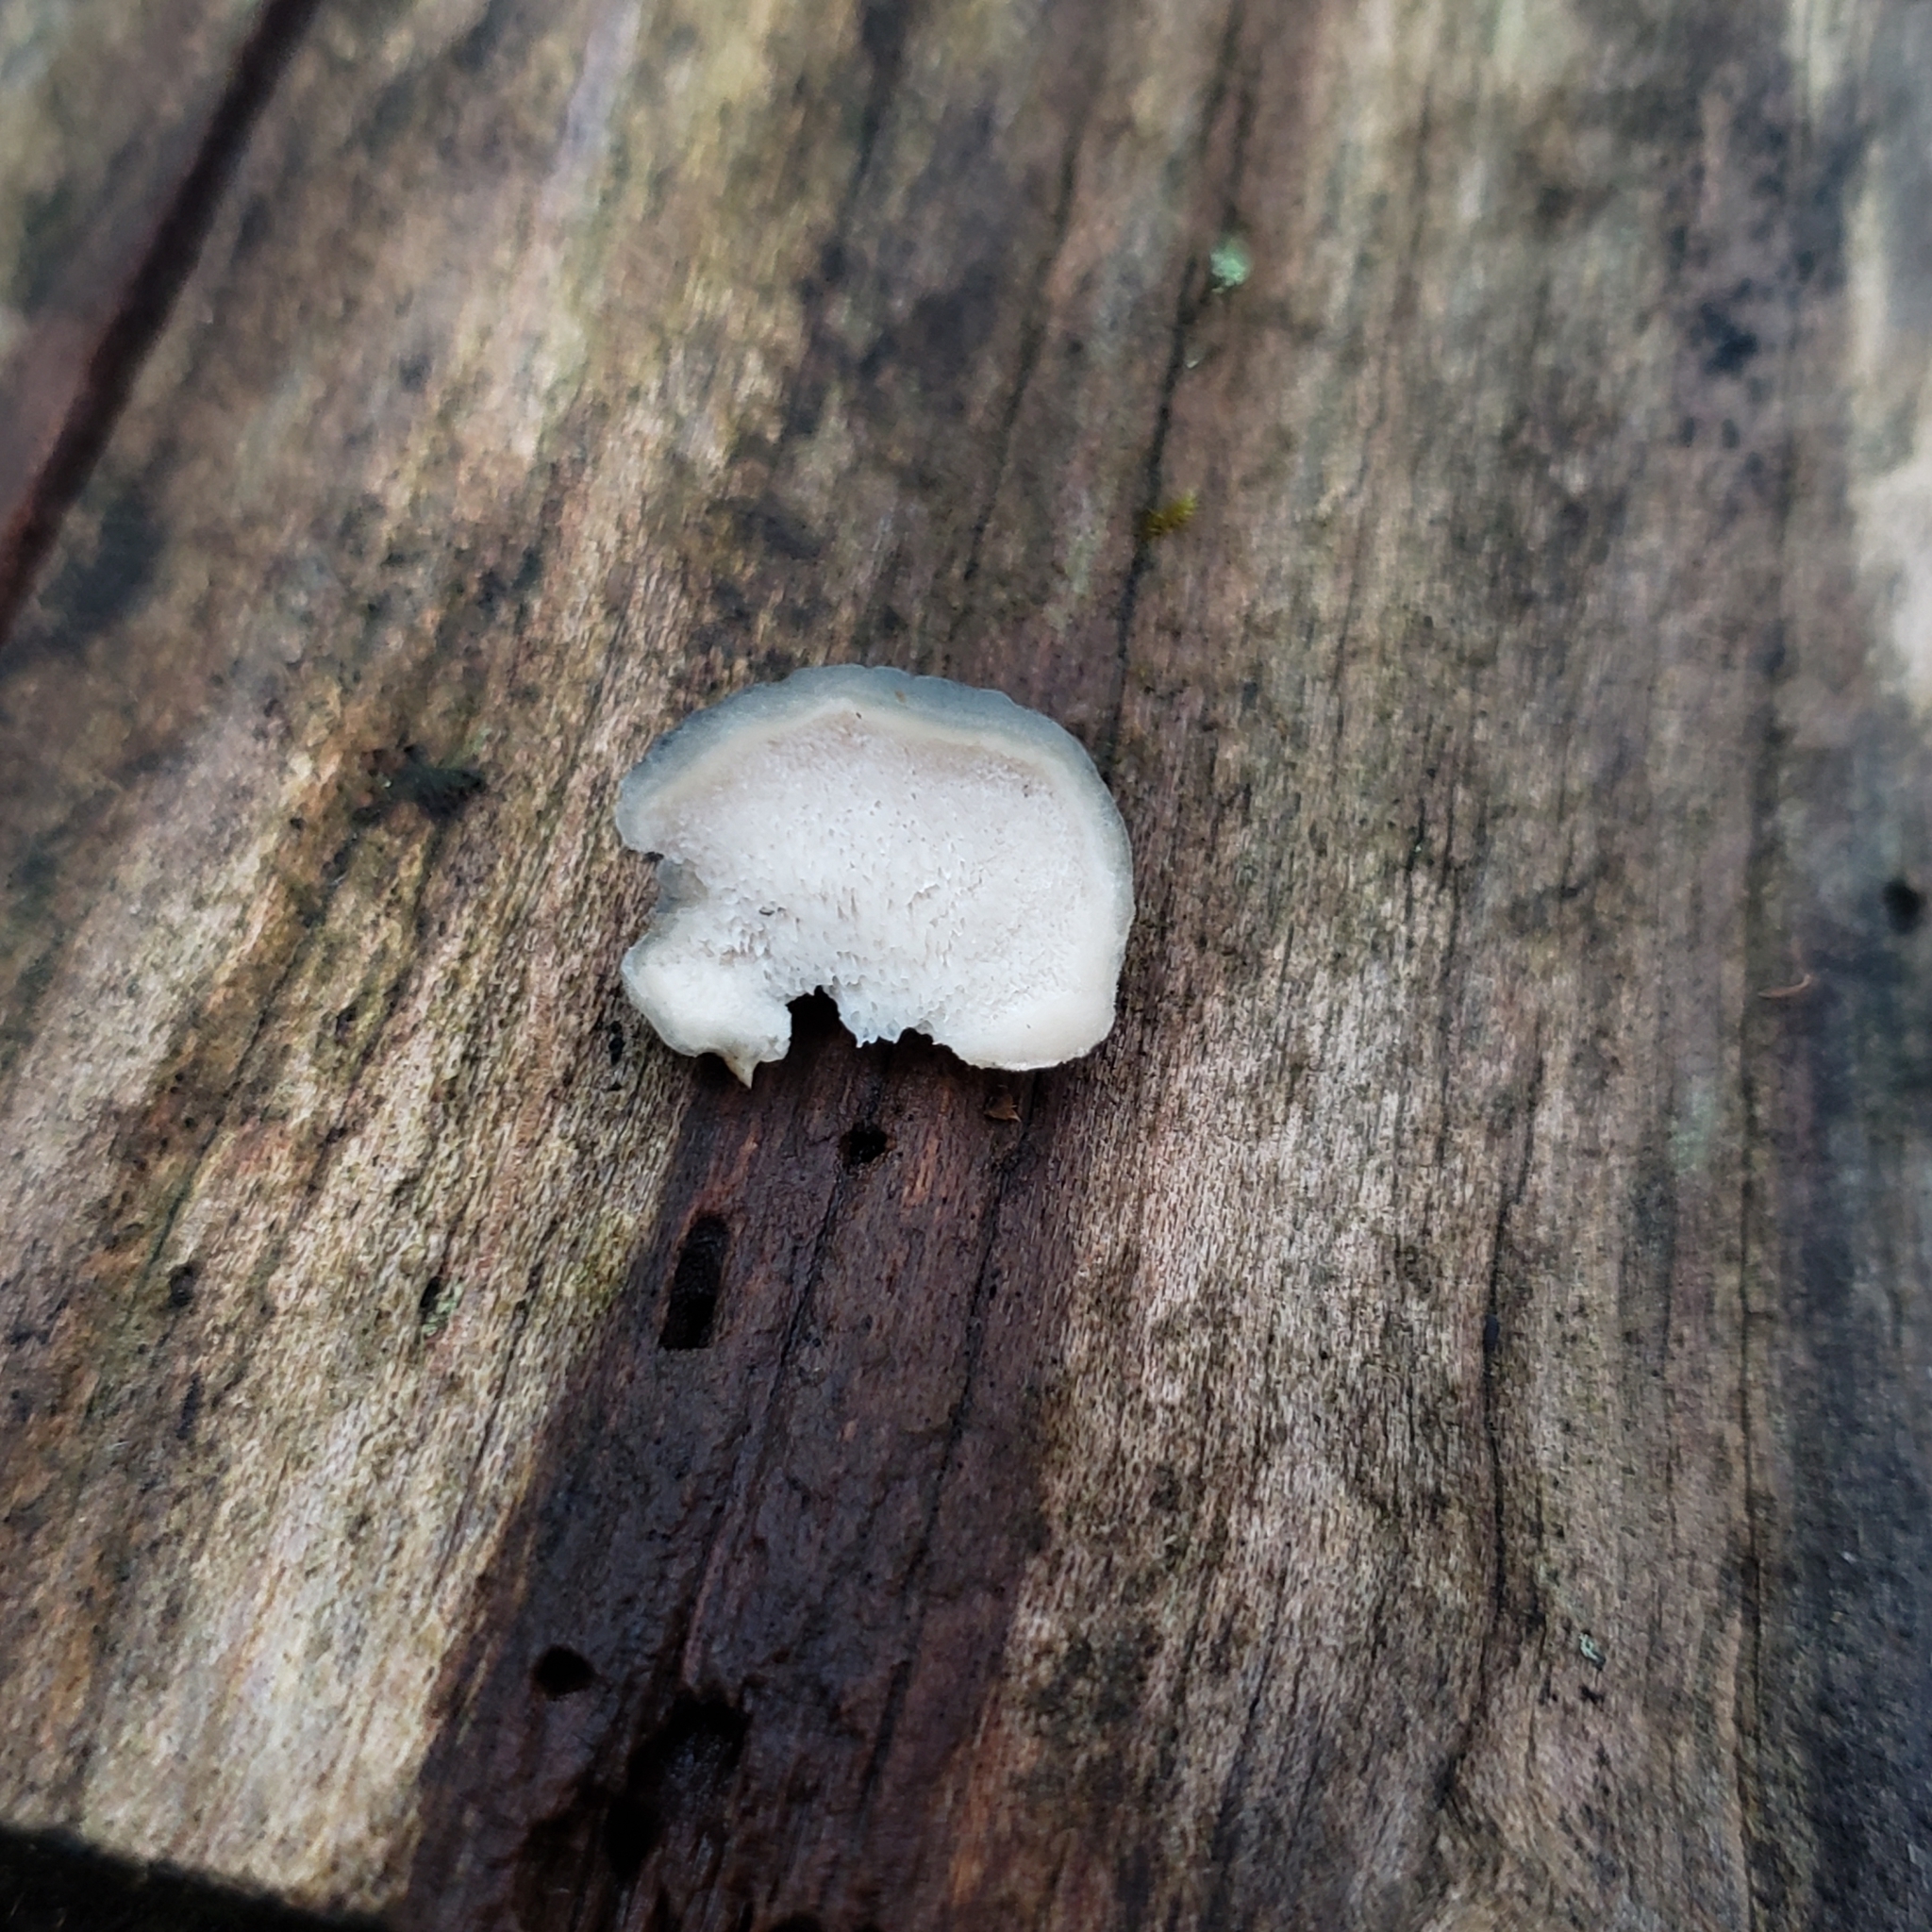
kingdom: Fungi
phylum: Basidiomycota
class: Agaricomycetes
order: Polyporales
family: Polyporaceae
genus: Cyanosporus
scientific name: Cyanosporus livens
